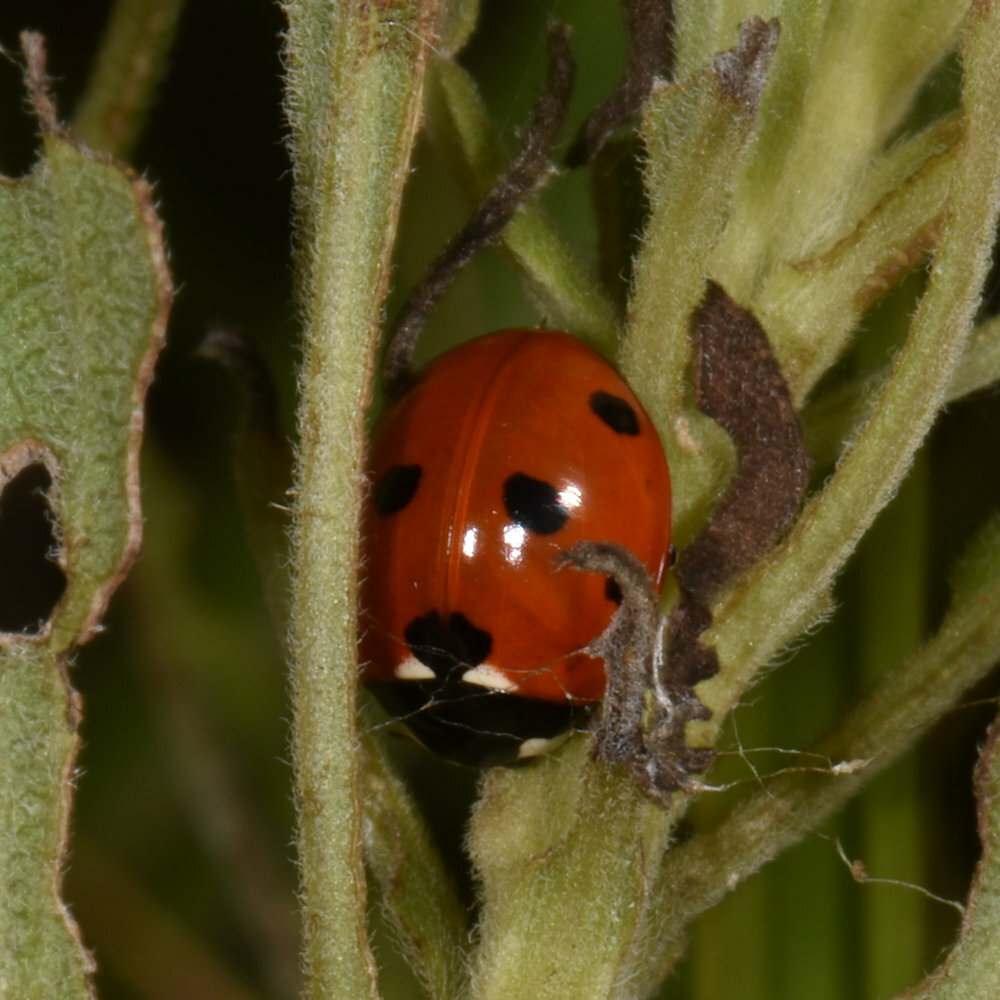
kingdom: Animalia
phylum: Arthropoda
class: Insecta
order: Coleoptera
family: Coccinellidae
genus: Coccinella
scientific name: Coccinella septempunctata
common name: Sevenspotted lady beetle
